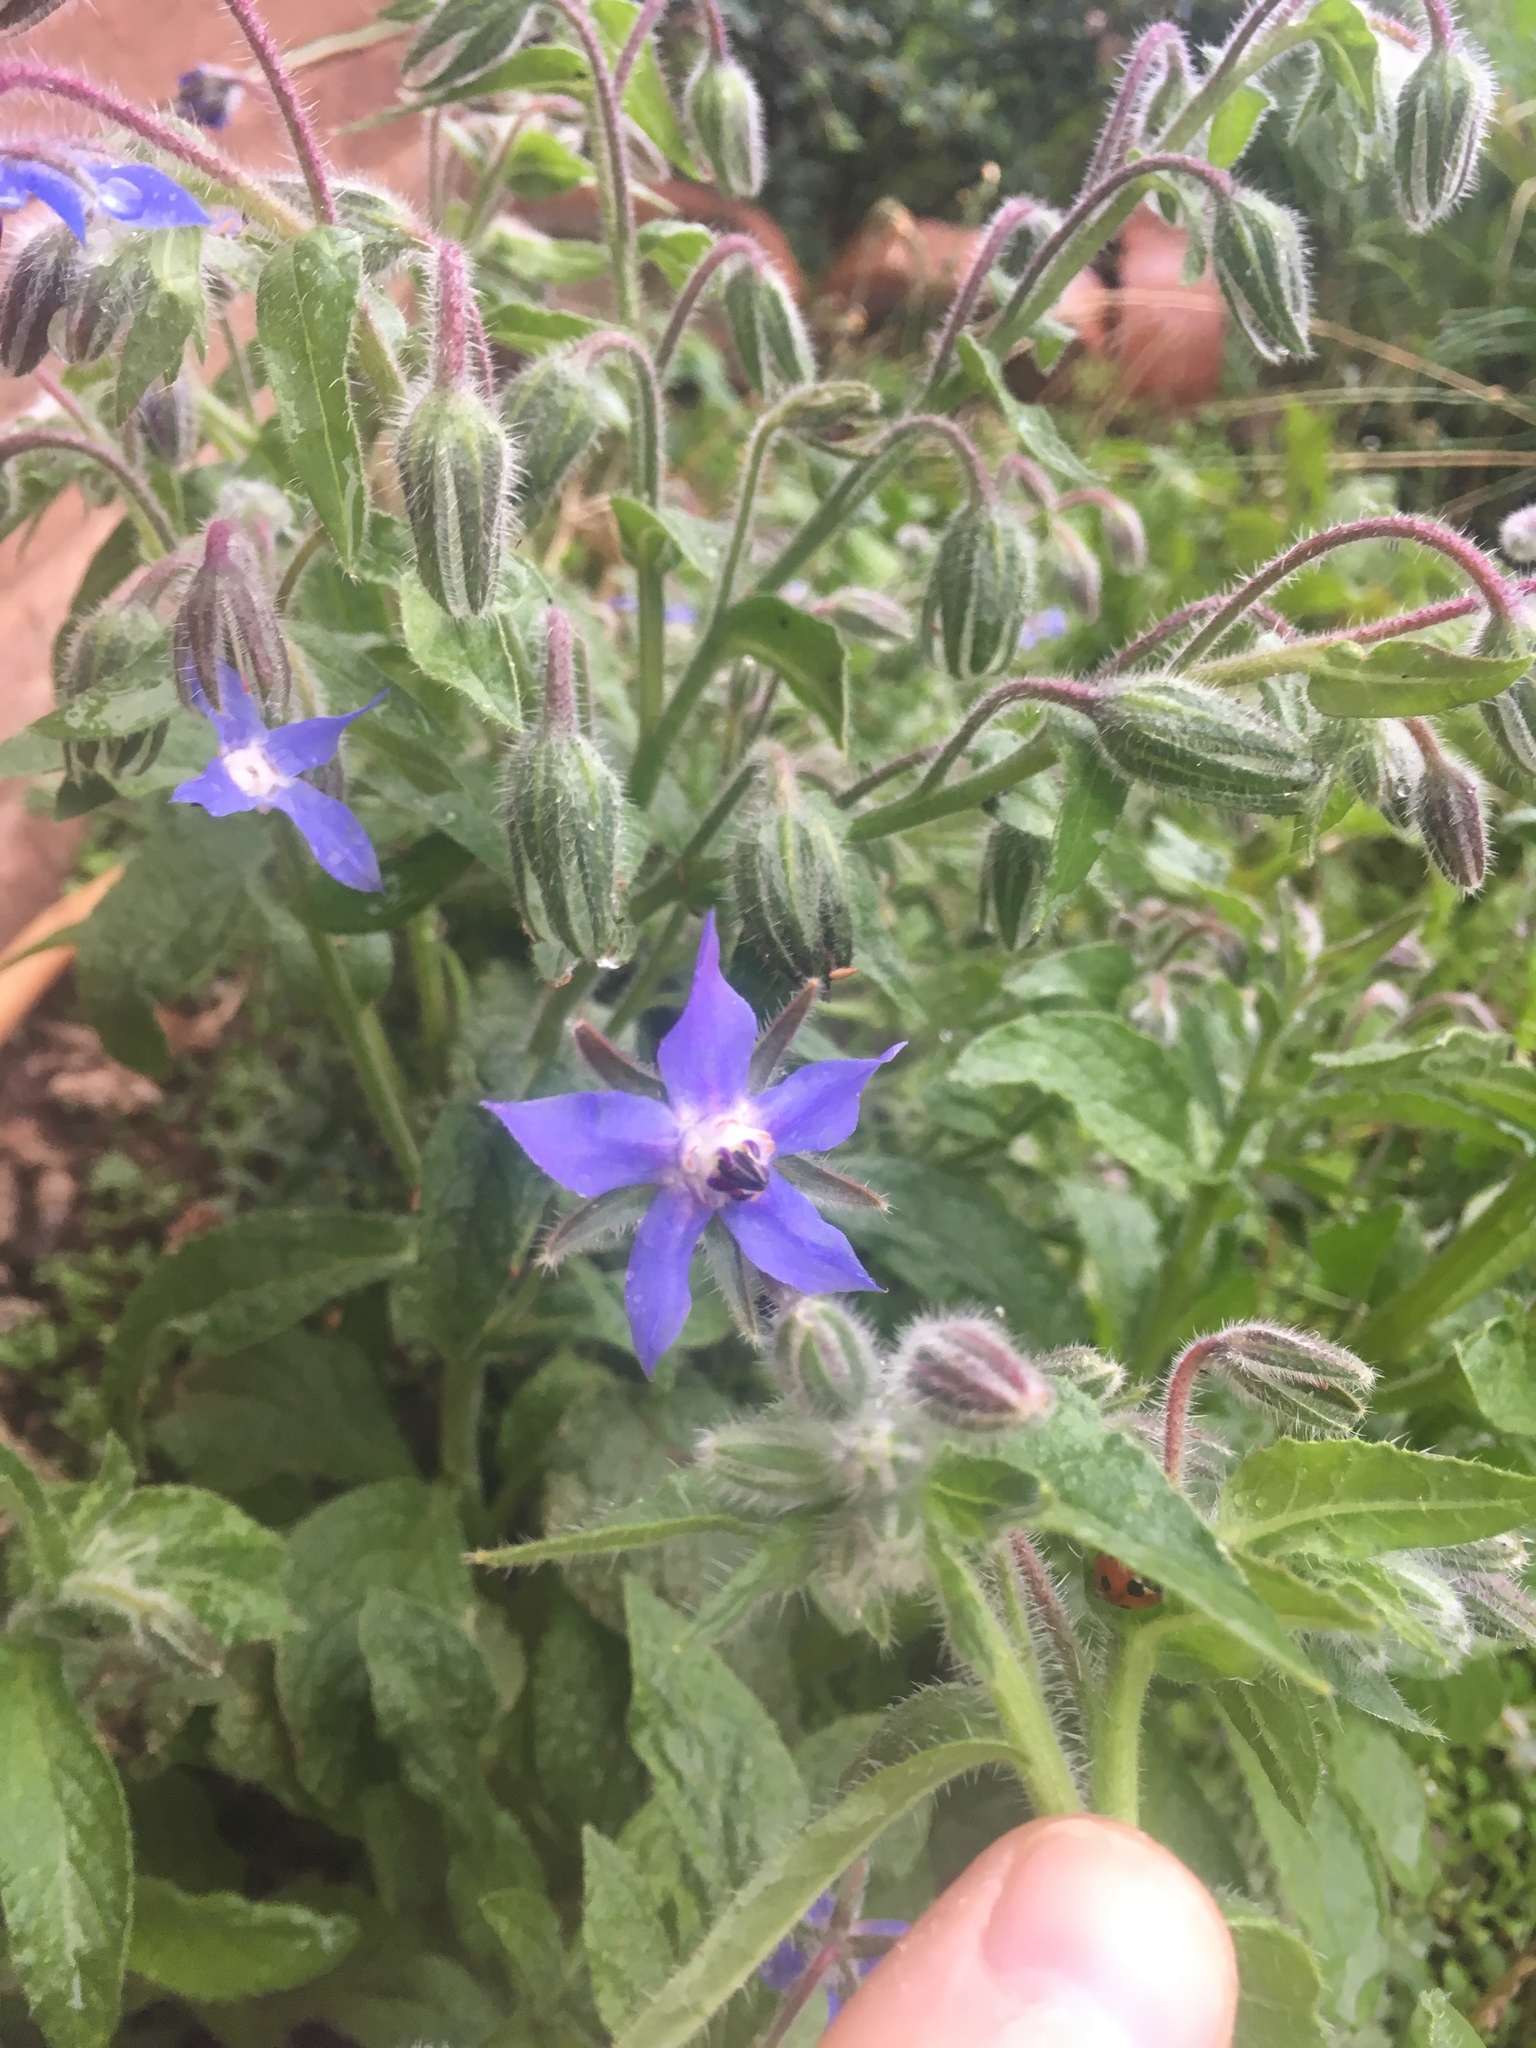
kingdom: Plantae
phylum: Tracheophyta
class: Magnoliopsida
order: Boraginales
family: Boraginaceae
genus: Borago
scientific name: Borago officinalis
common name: Borage
